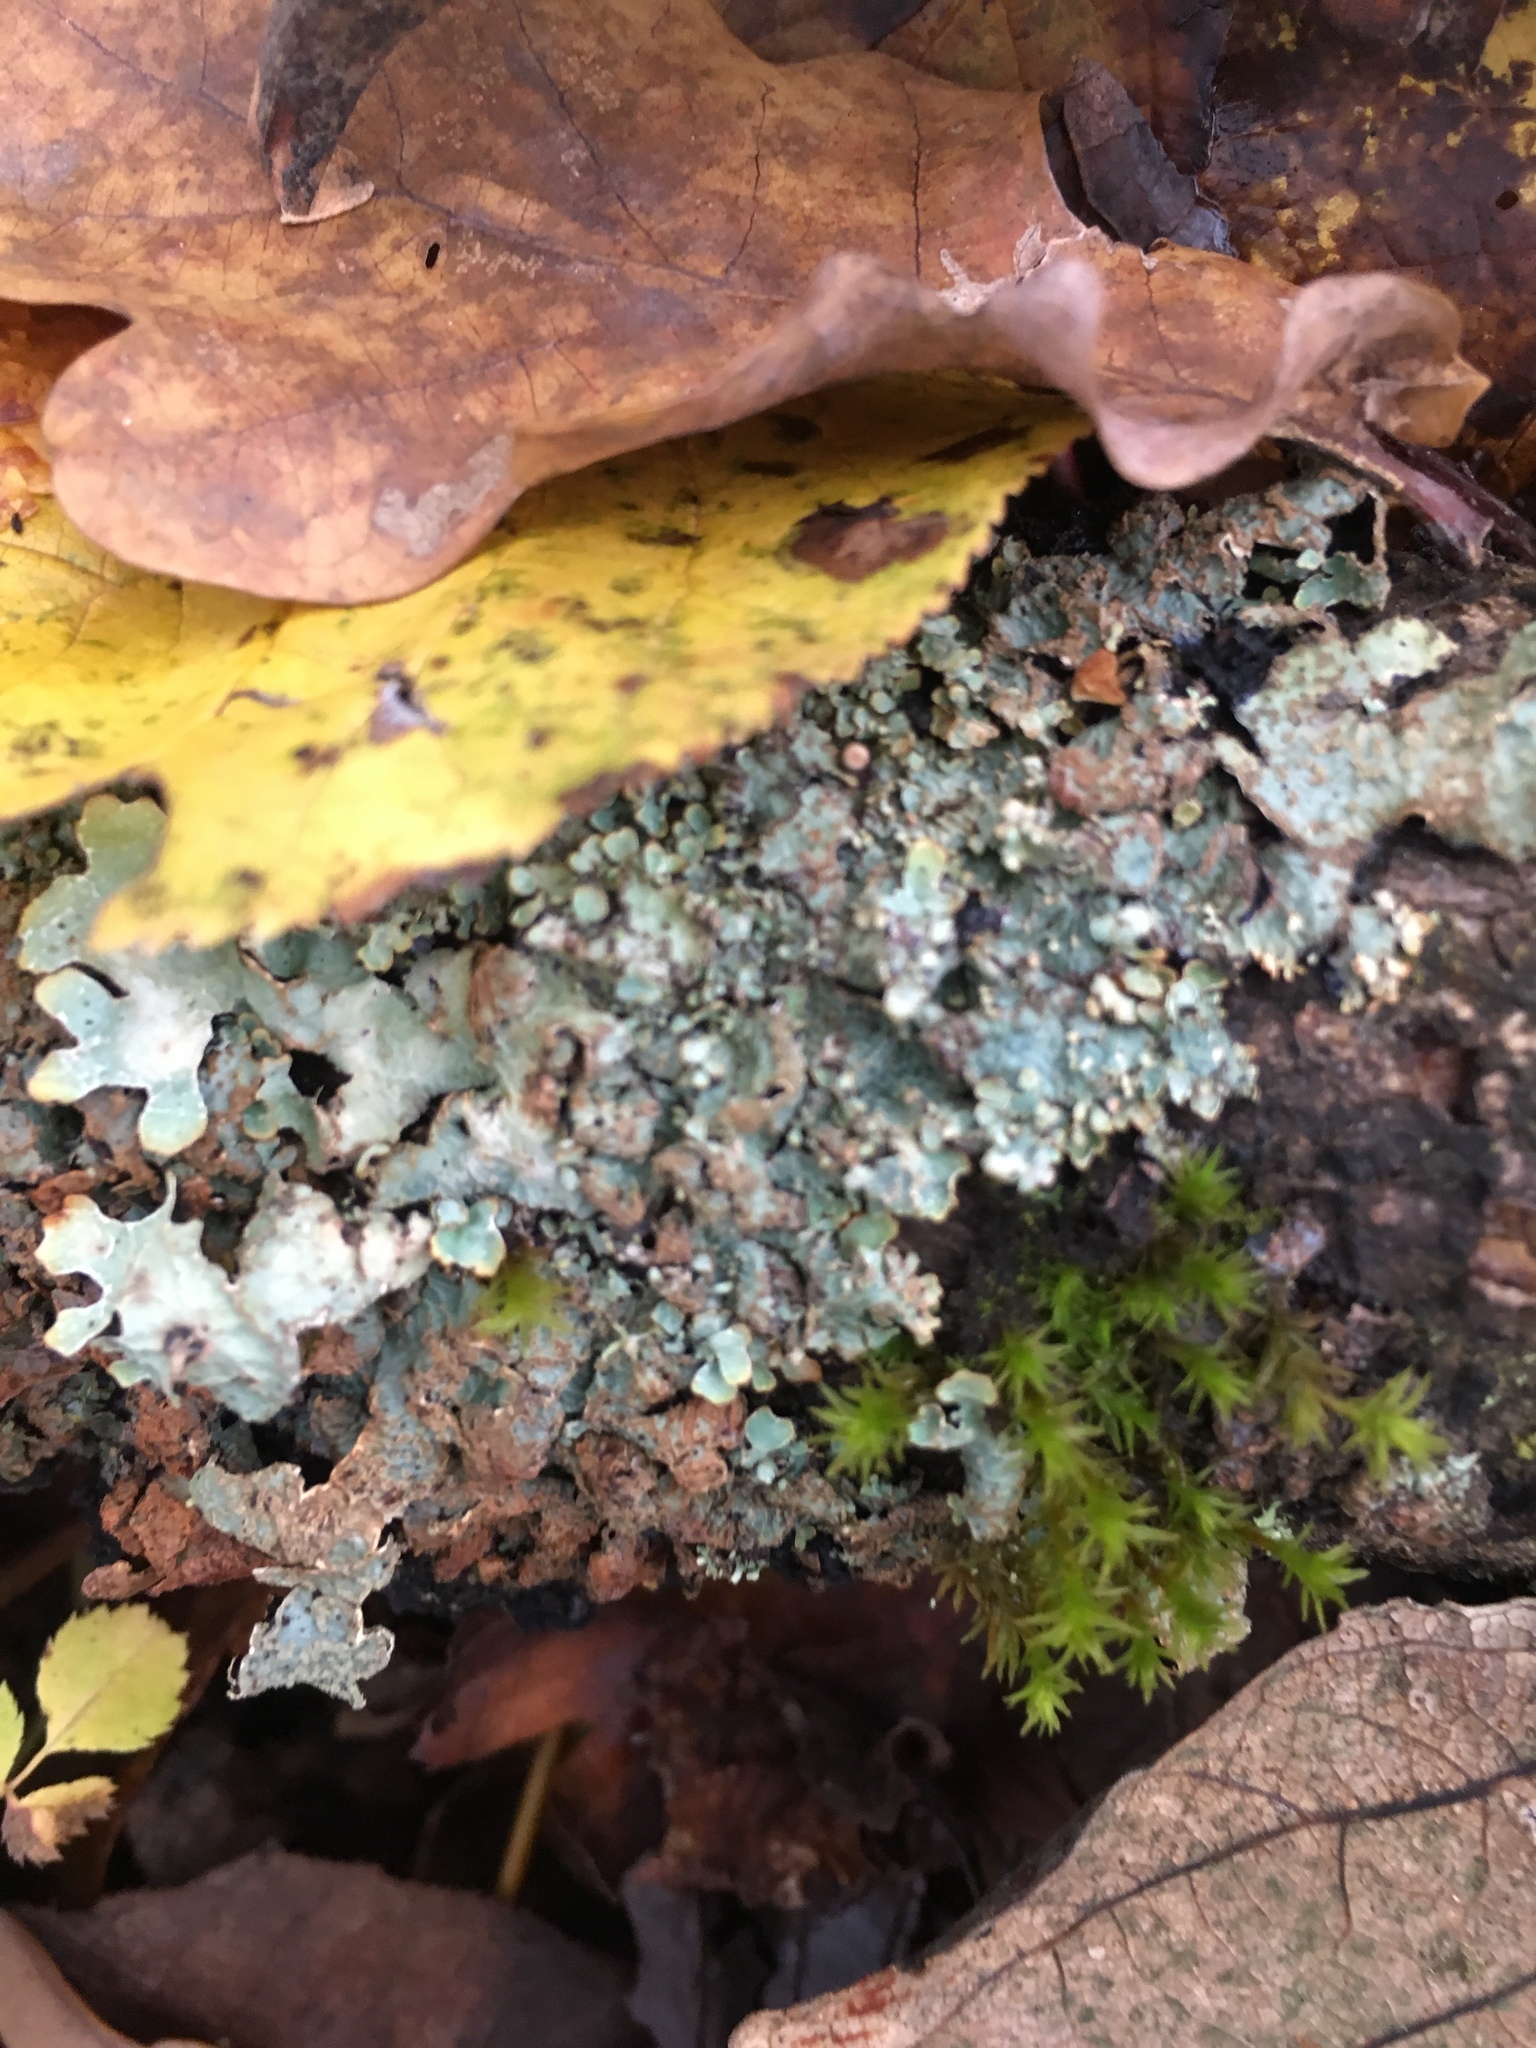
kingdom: Fungi
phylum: Ascomycota
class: Lecanoromycetes
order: Lecanorales
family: Parmeliaceae
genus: Parmelia
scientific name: Parmelia sulcata
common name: Netted shield lichen
